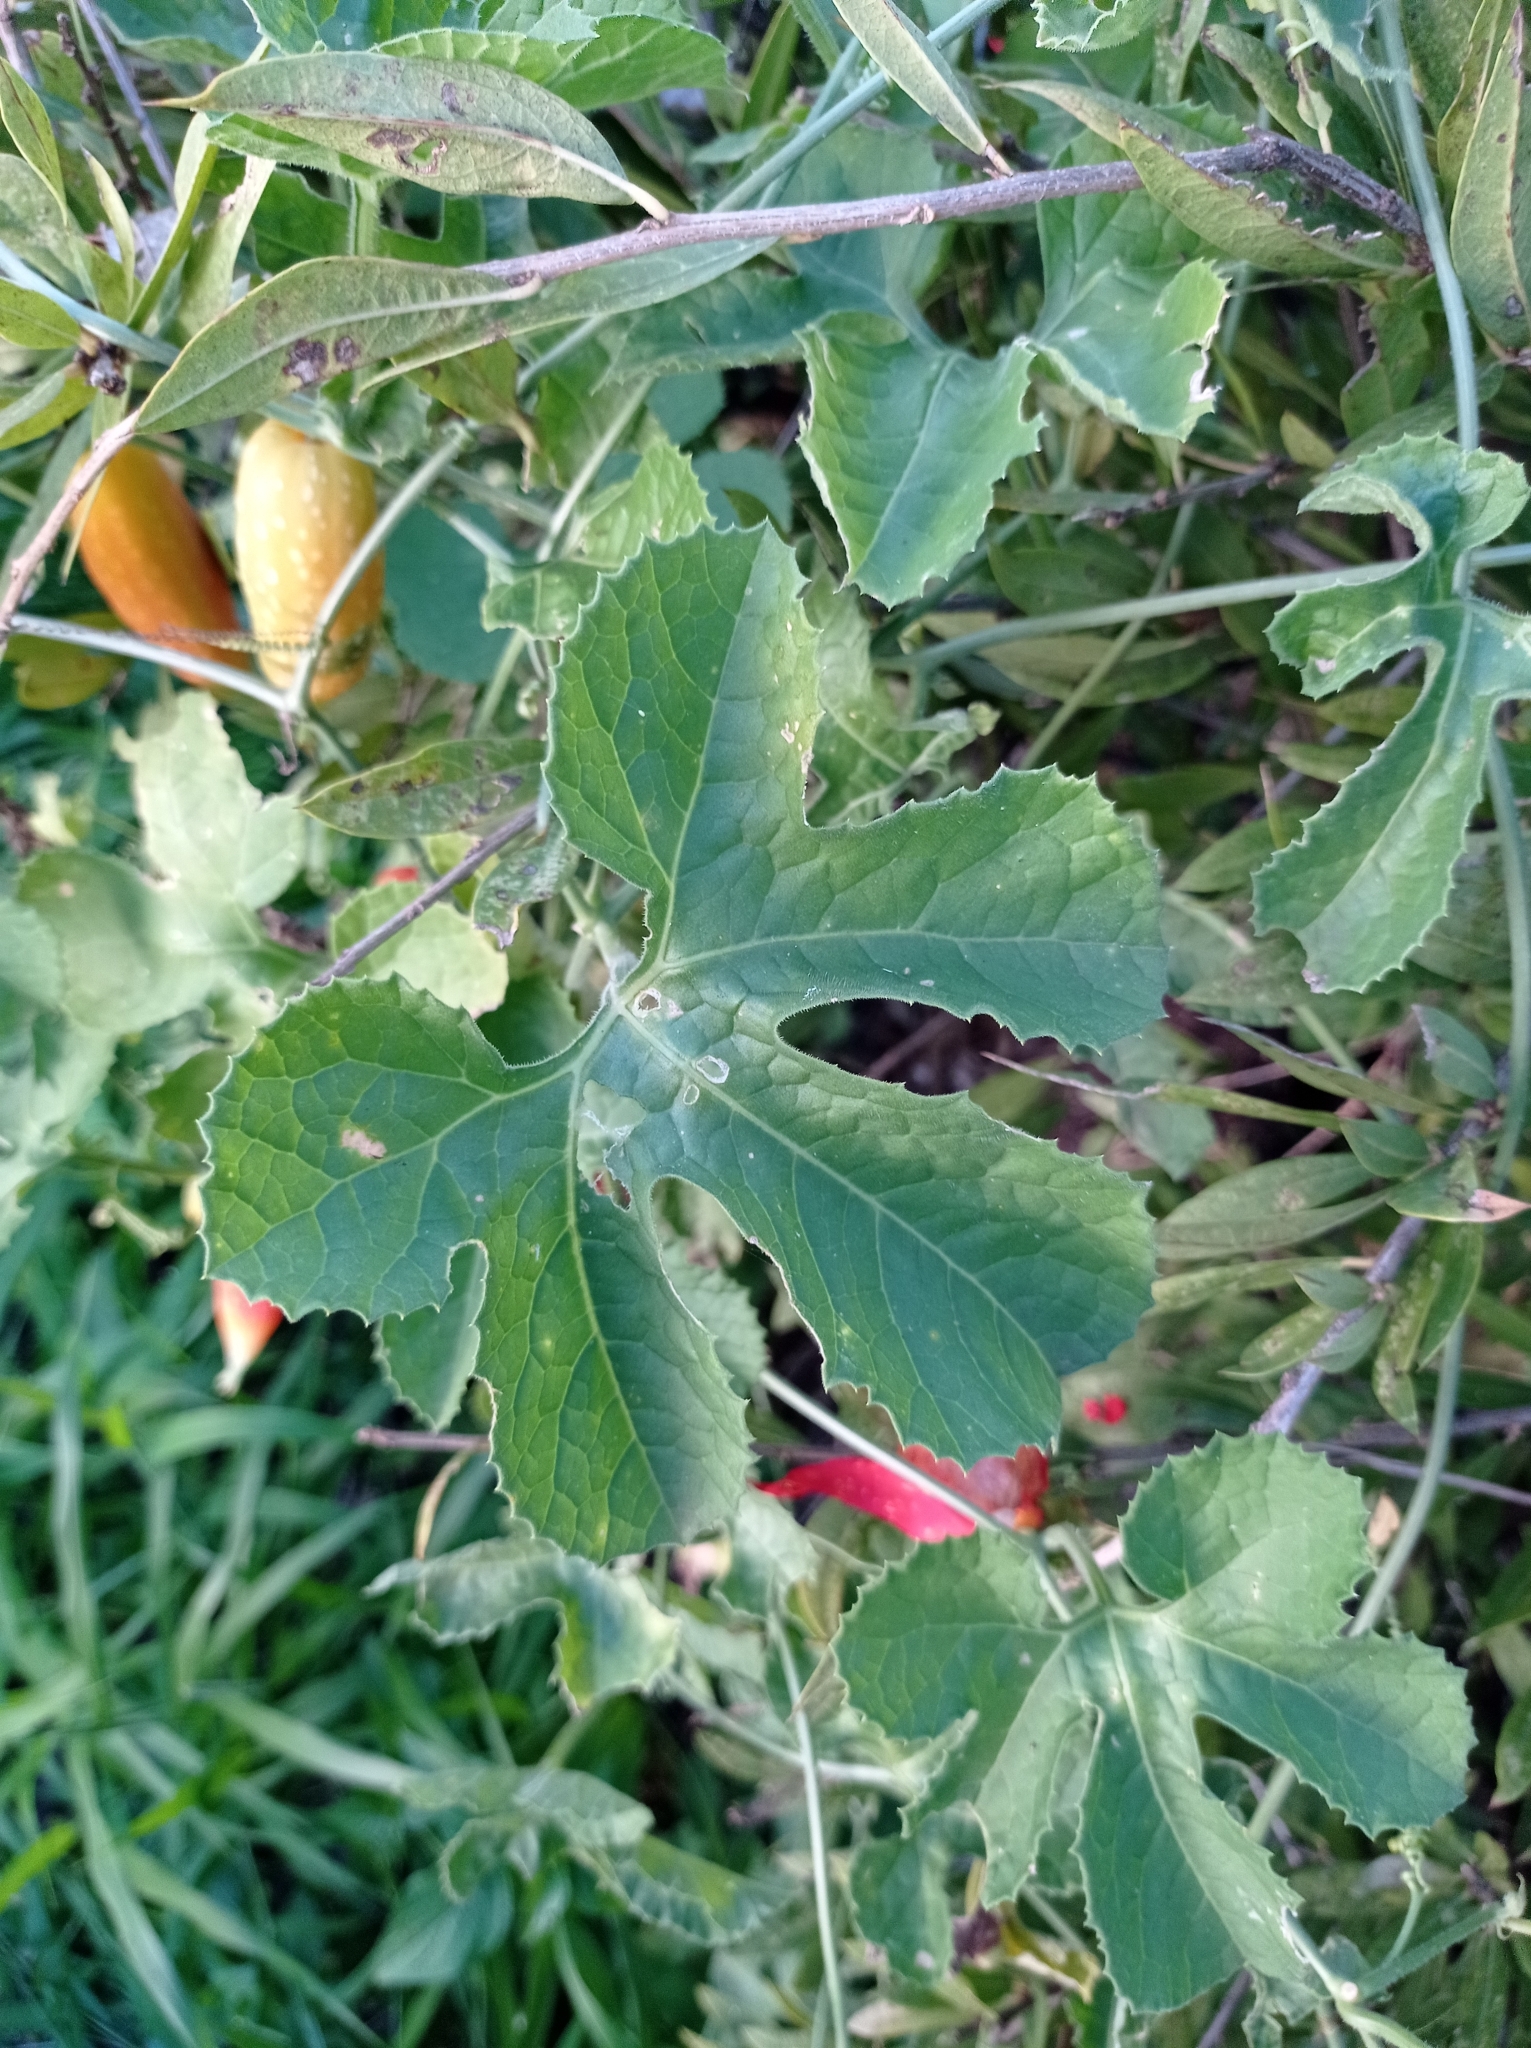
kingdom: Plantae
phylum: Tracheophyta
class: Magnoliopsida
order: Cucurbitales
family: Cucurbitaceae
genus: Kedrostis
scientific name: Kedrostis leloja
